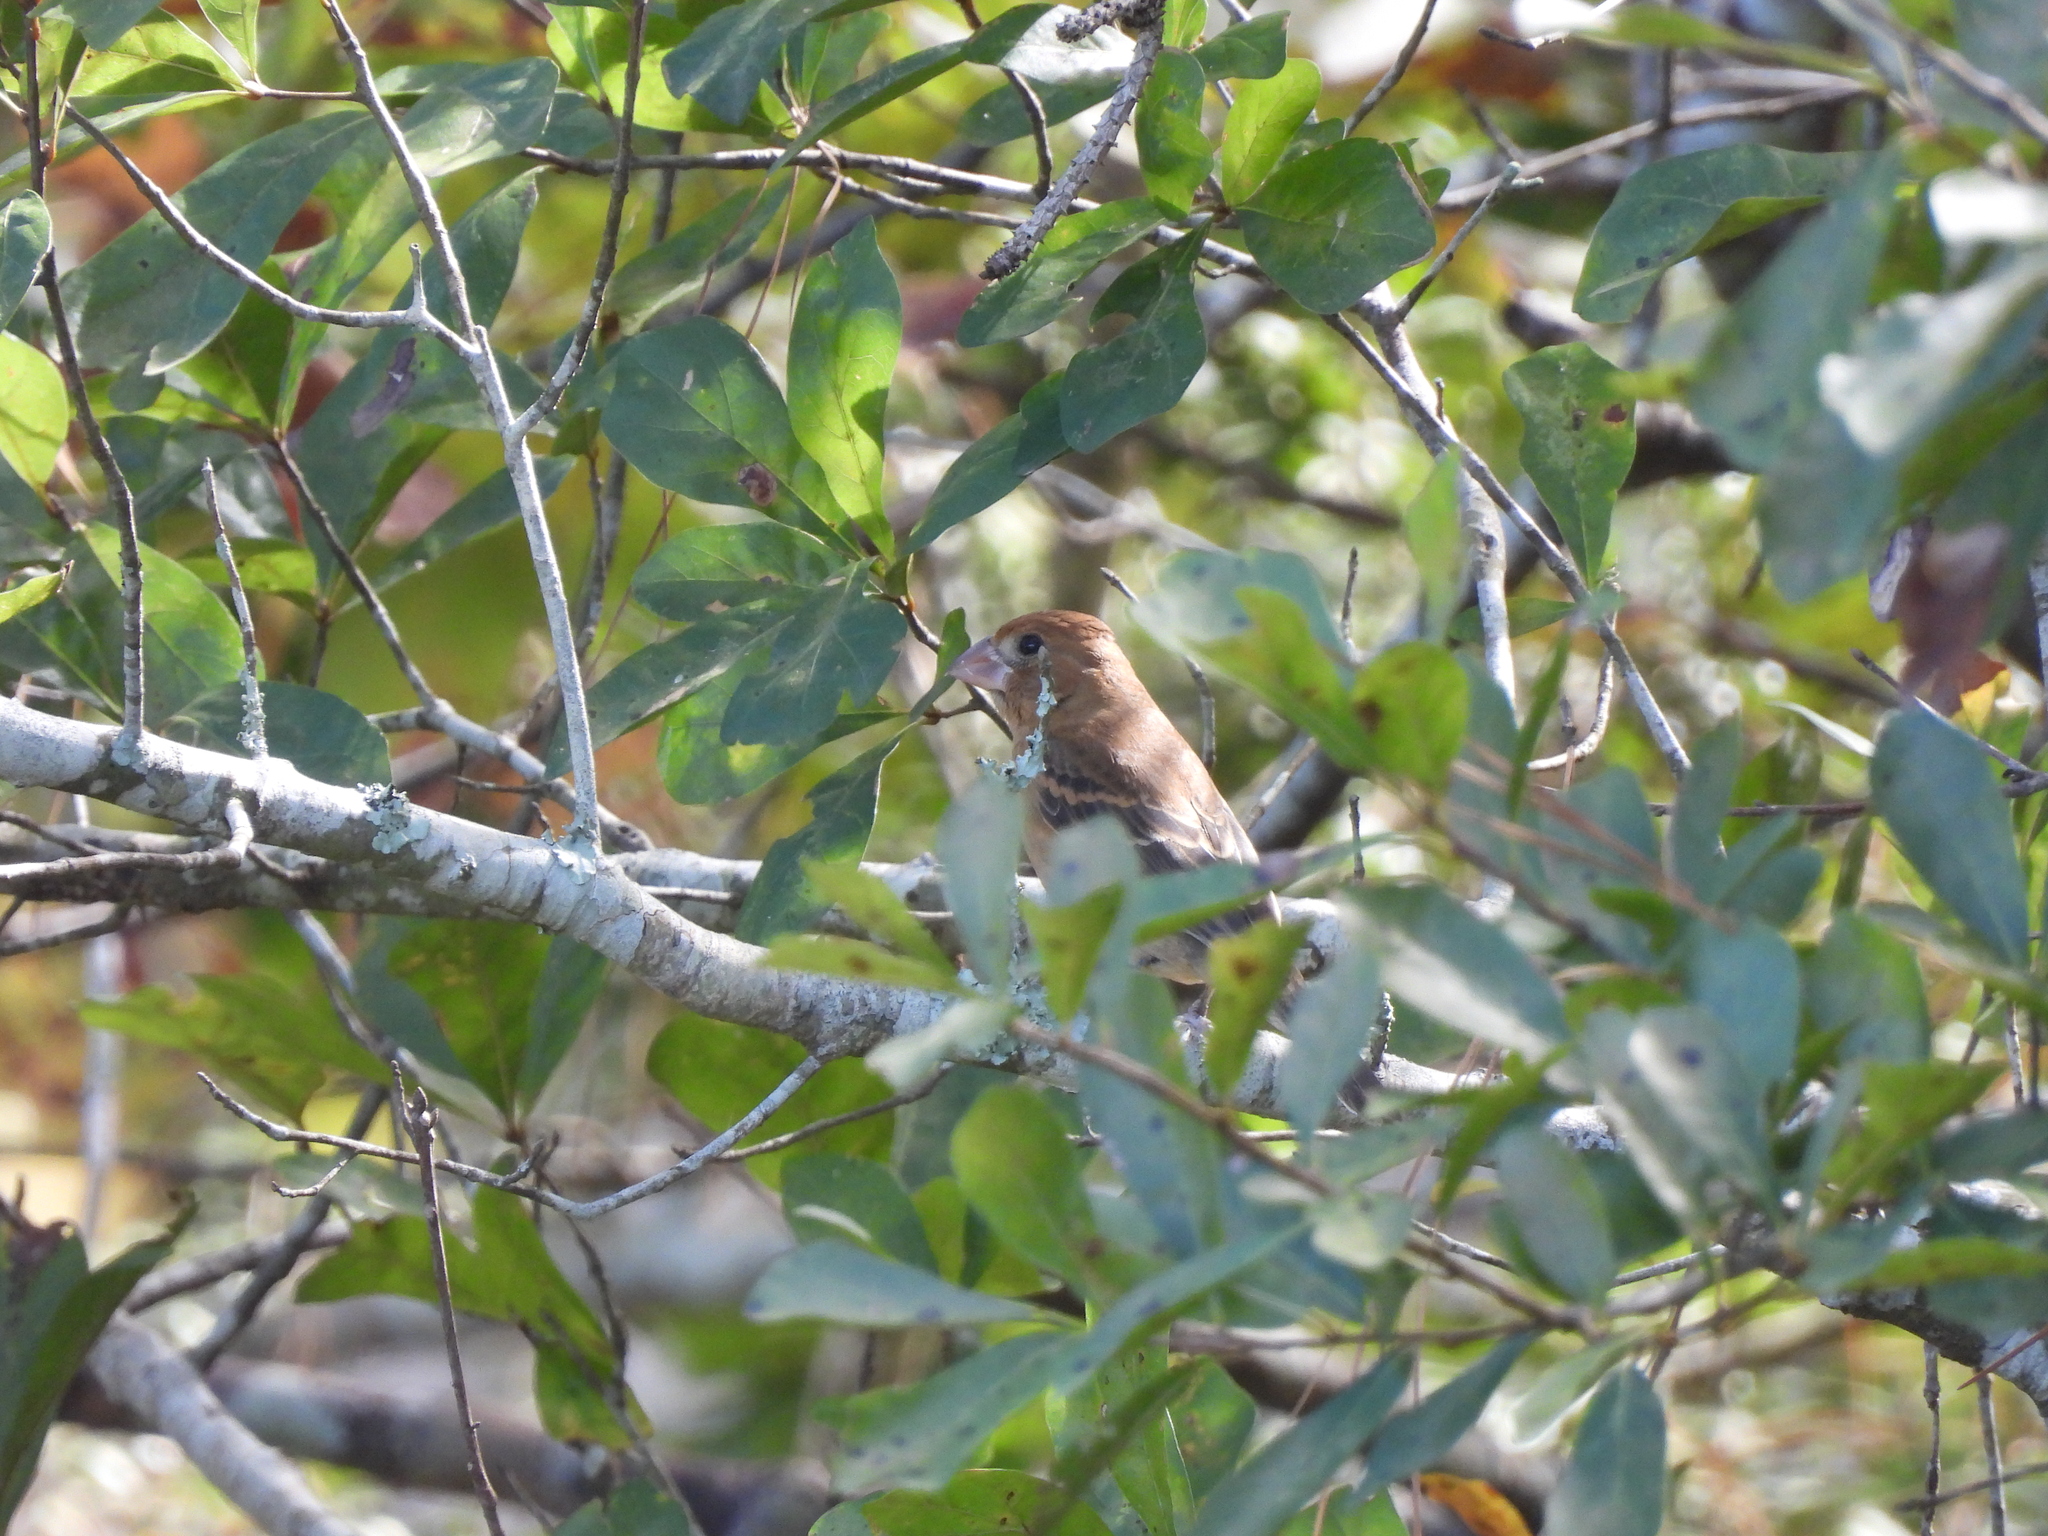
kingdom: Animalia
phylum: Chordata
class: Aves
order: Passeriformes
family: Cardinalidae
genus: Passerina
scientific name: Passerina caerulea
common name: Blue grosbeak
